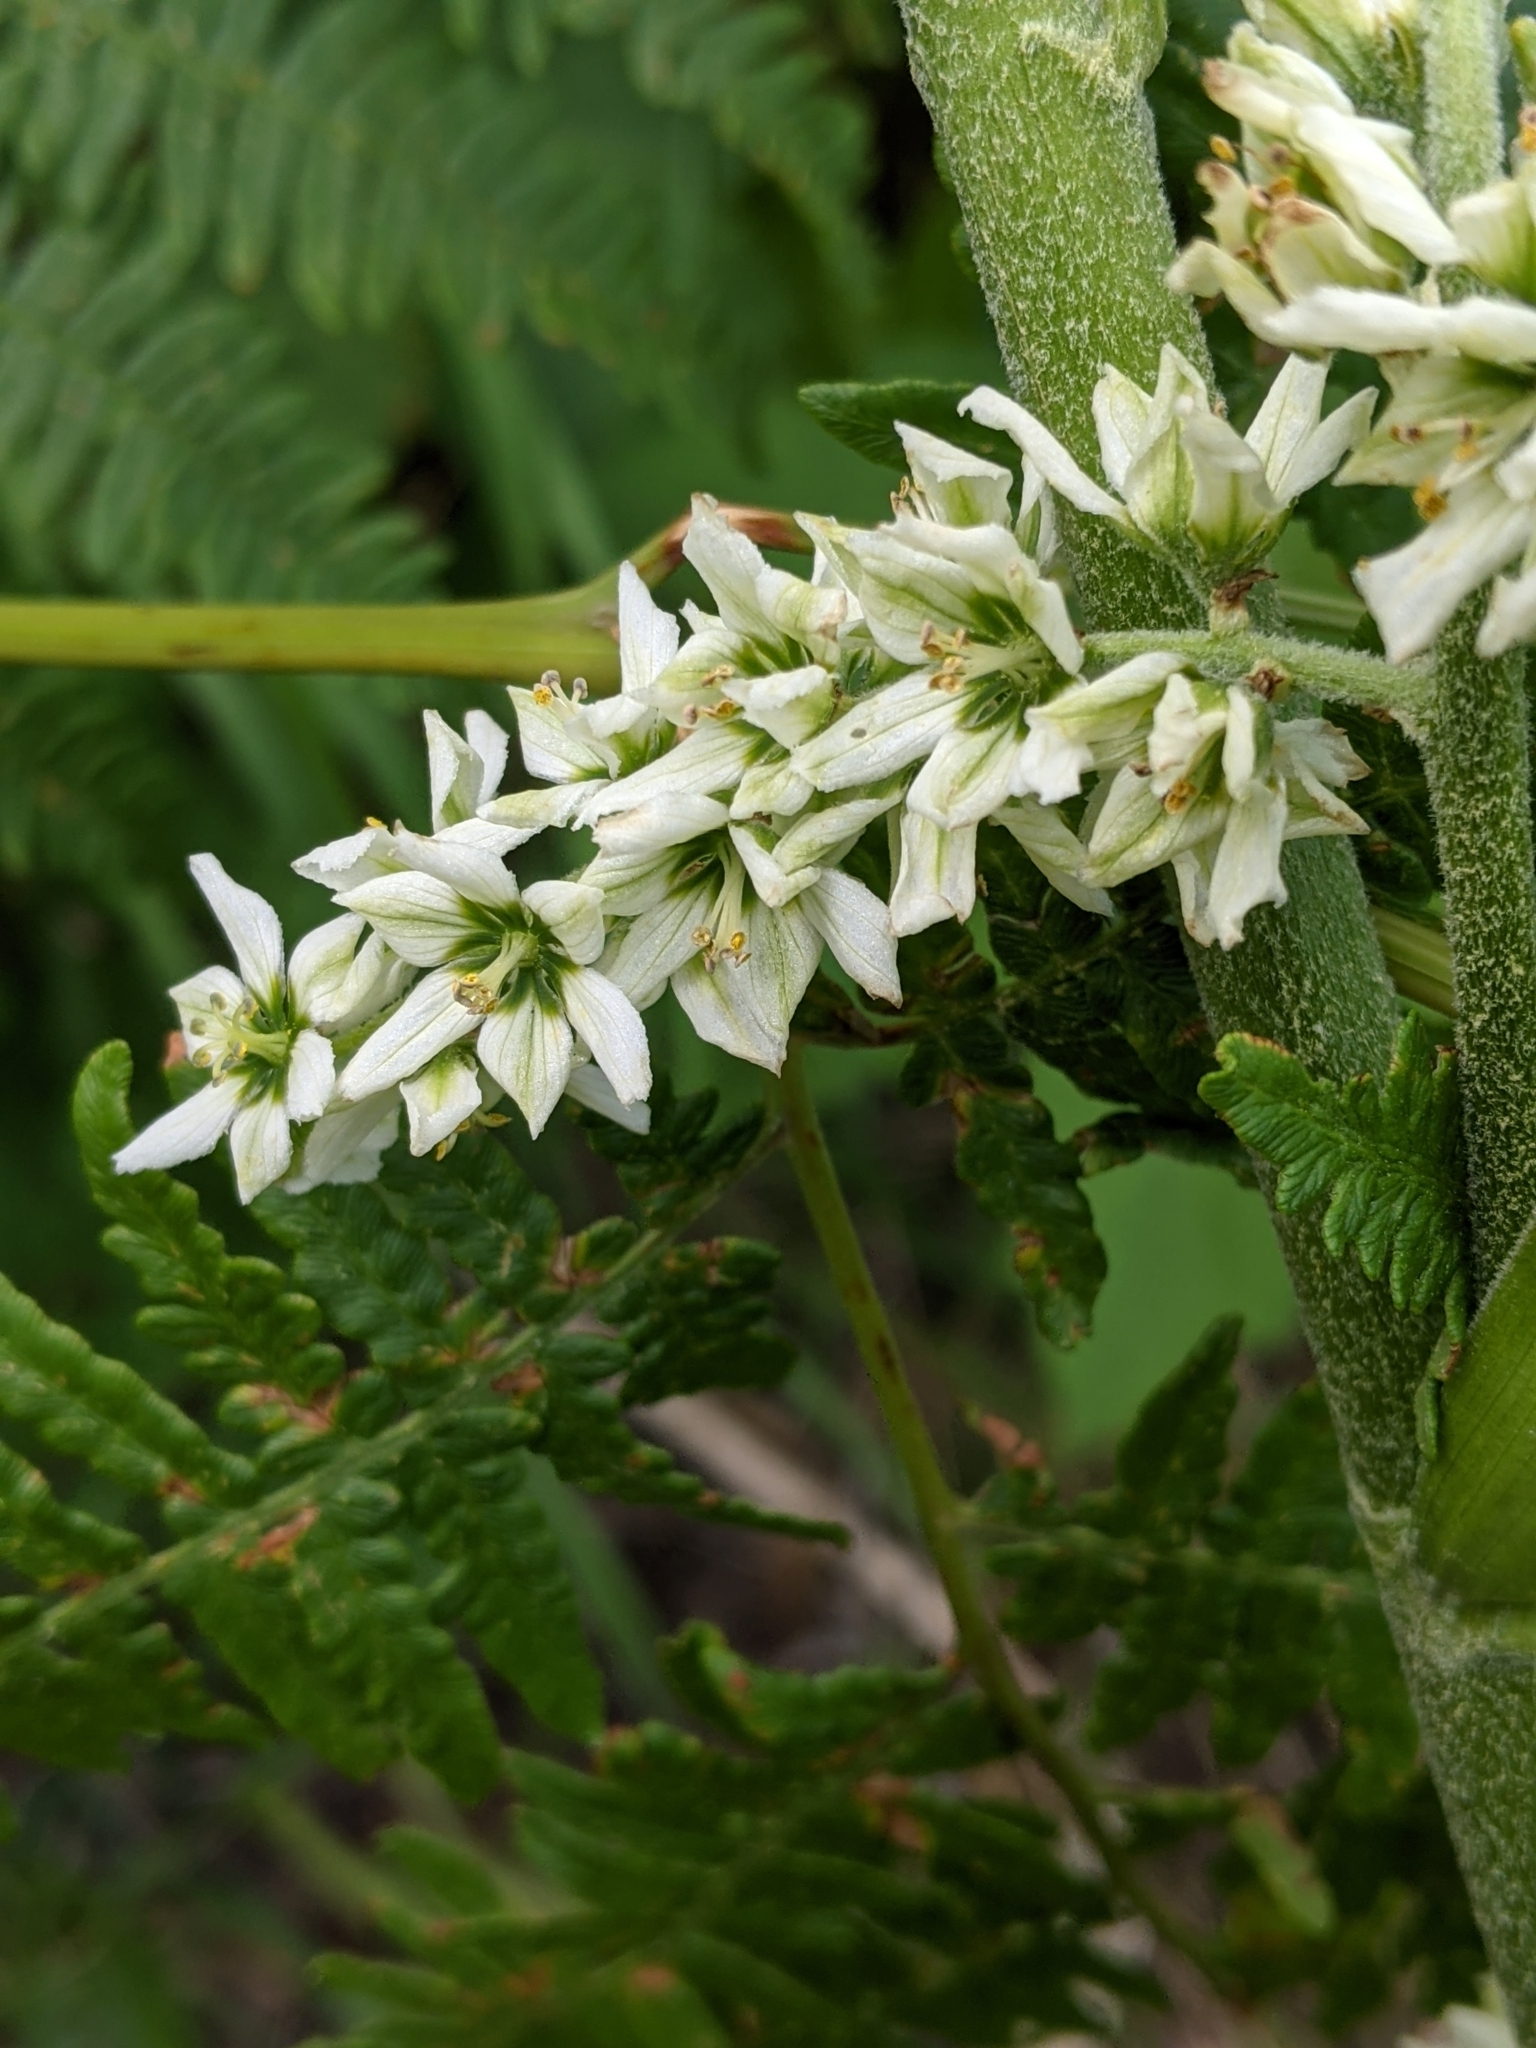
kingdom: Plantae
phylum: Tracheophyta
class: Liliopsida
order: Liliales
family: Melanthiaceae
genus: Veratrum
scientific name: Veratrum californicum
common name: California veratrum
